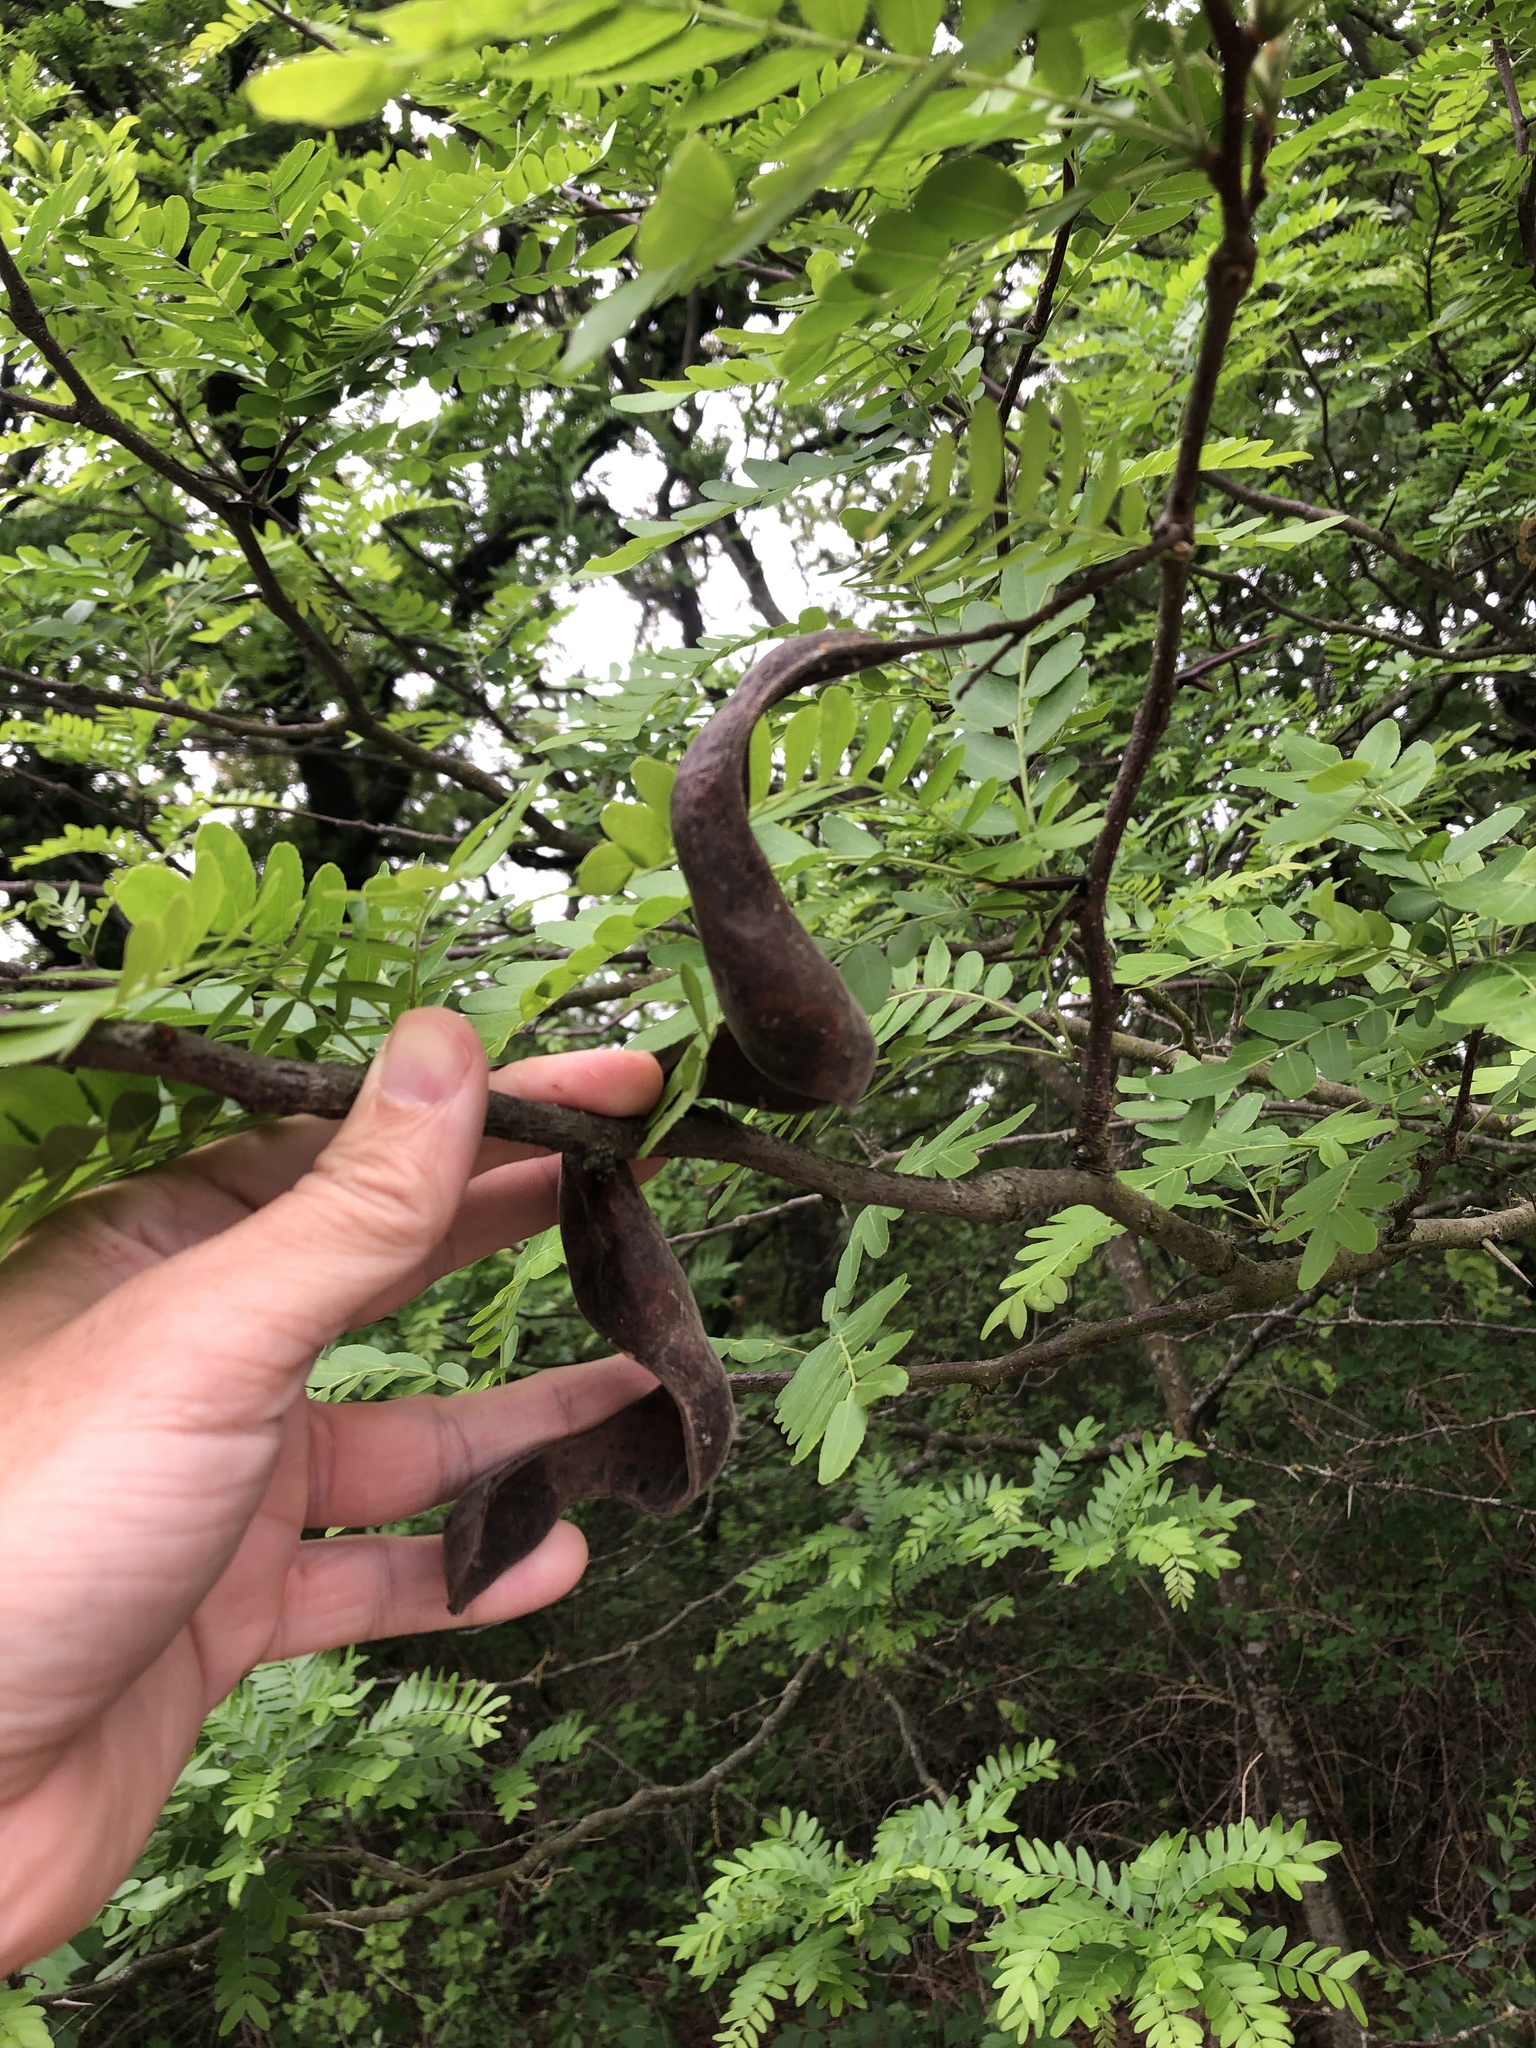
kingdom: Plantae
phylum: Tracheophyta
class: Magnoliopsida
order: Fabales
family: Fabaceae
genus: Gleditsia
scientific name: Gleditsia triacanthos
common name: Common honeylocust
